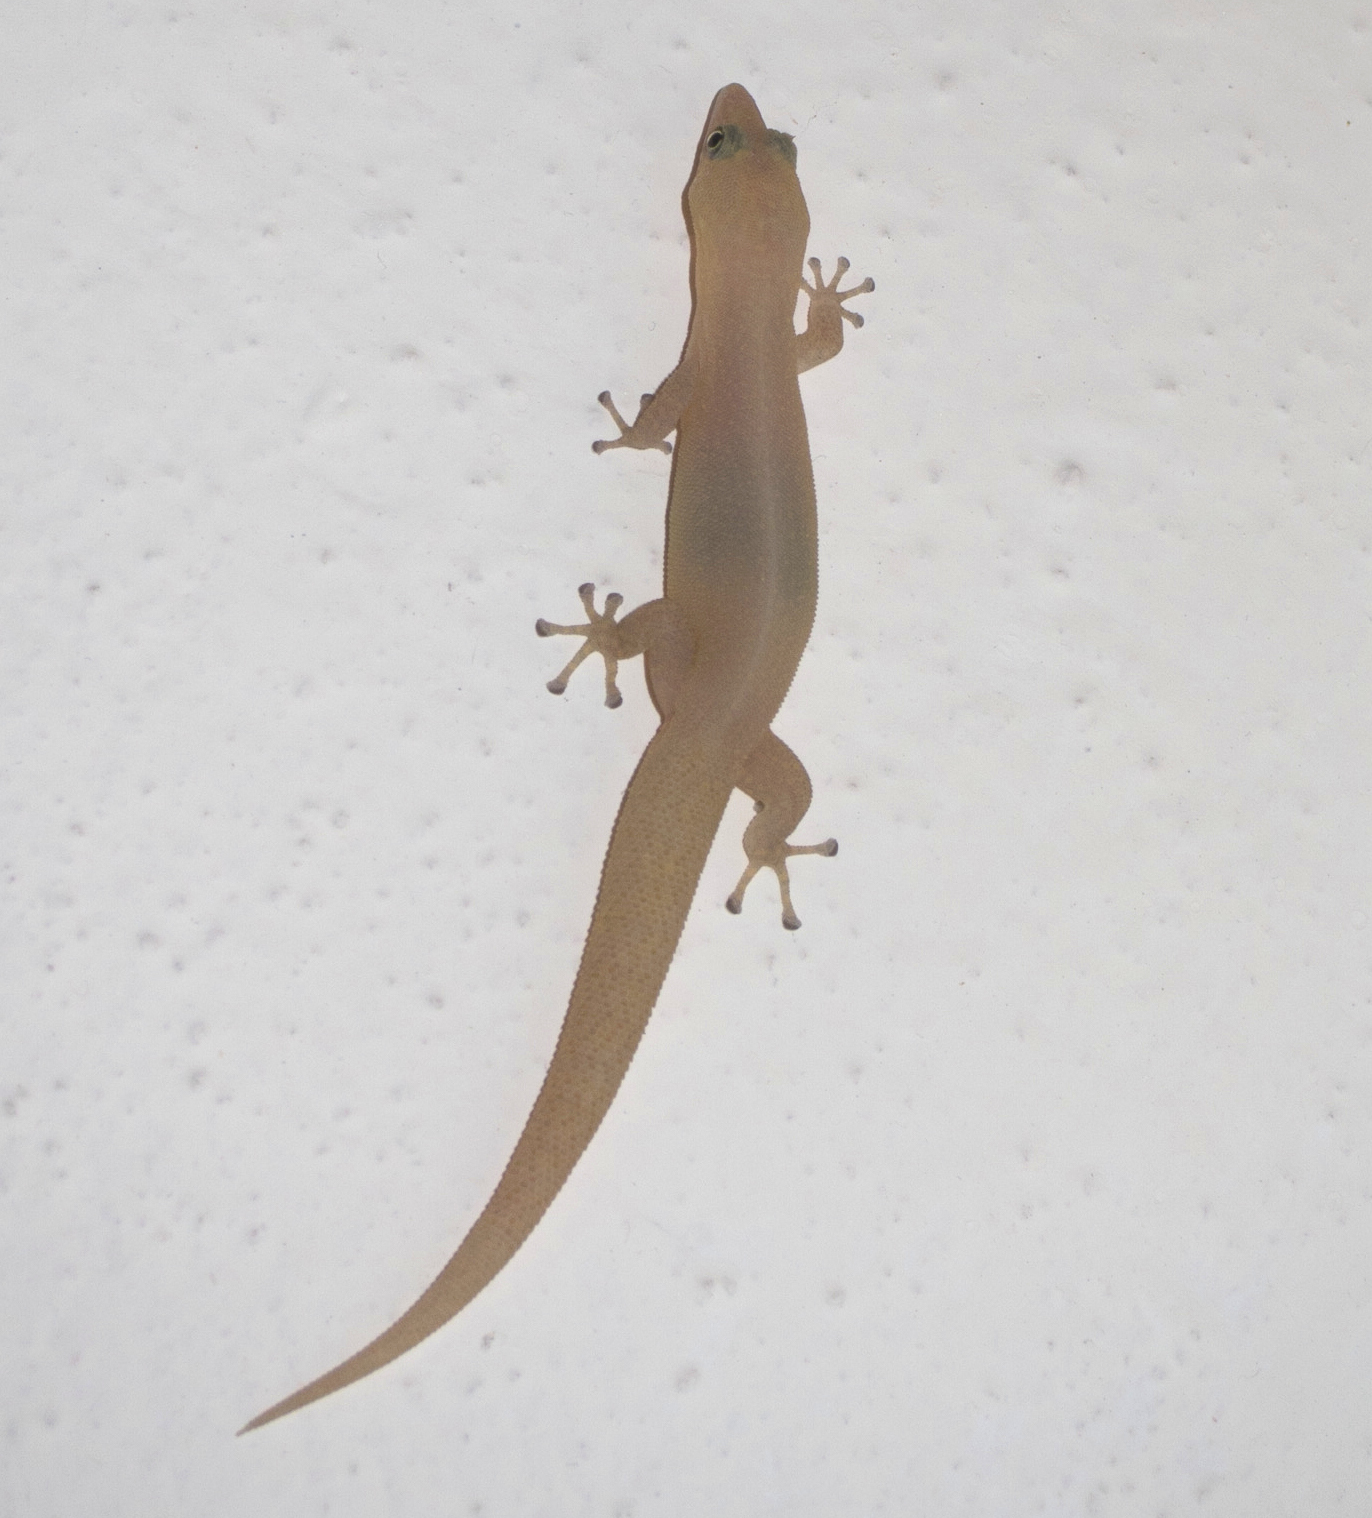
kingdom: Animalia
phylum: Chordata
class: Squamata
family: Sphaerodactylidae
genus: Sphaerodactylus
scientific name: Sphaerodactylus elegans
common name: Ashy gecko
